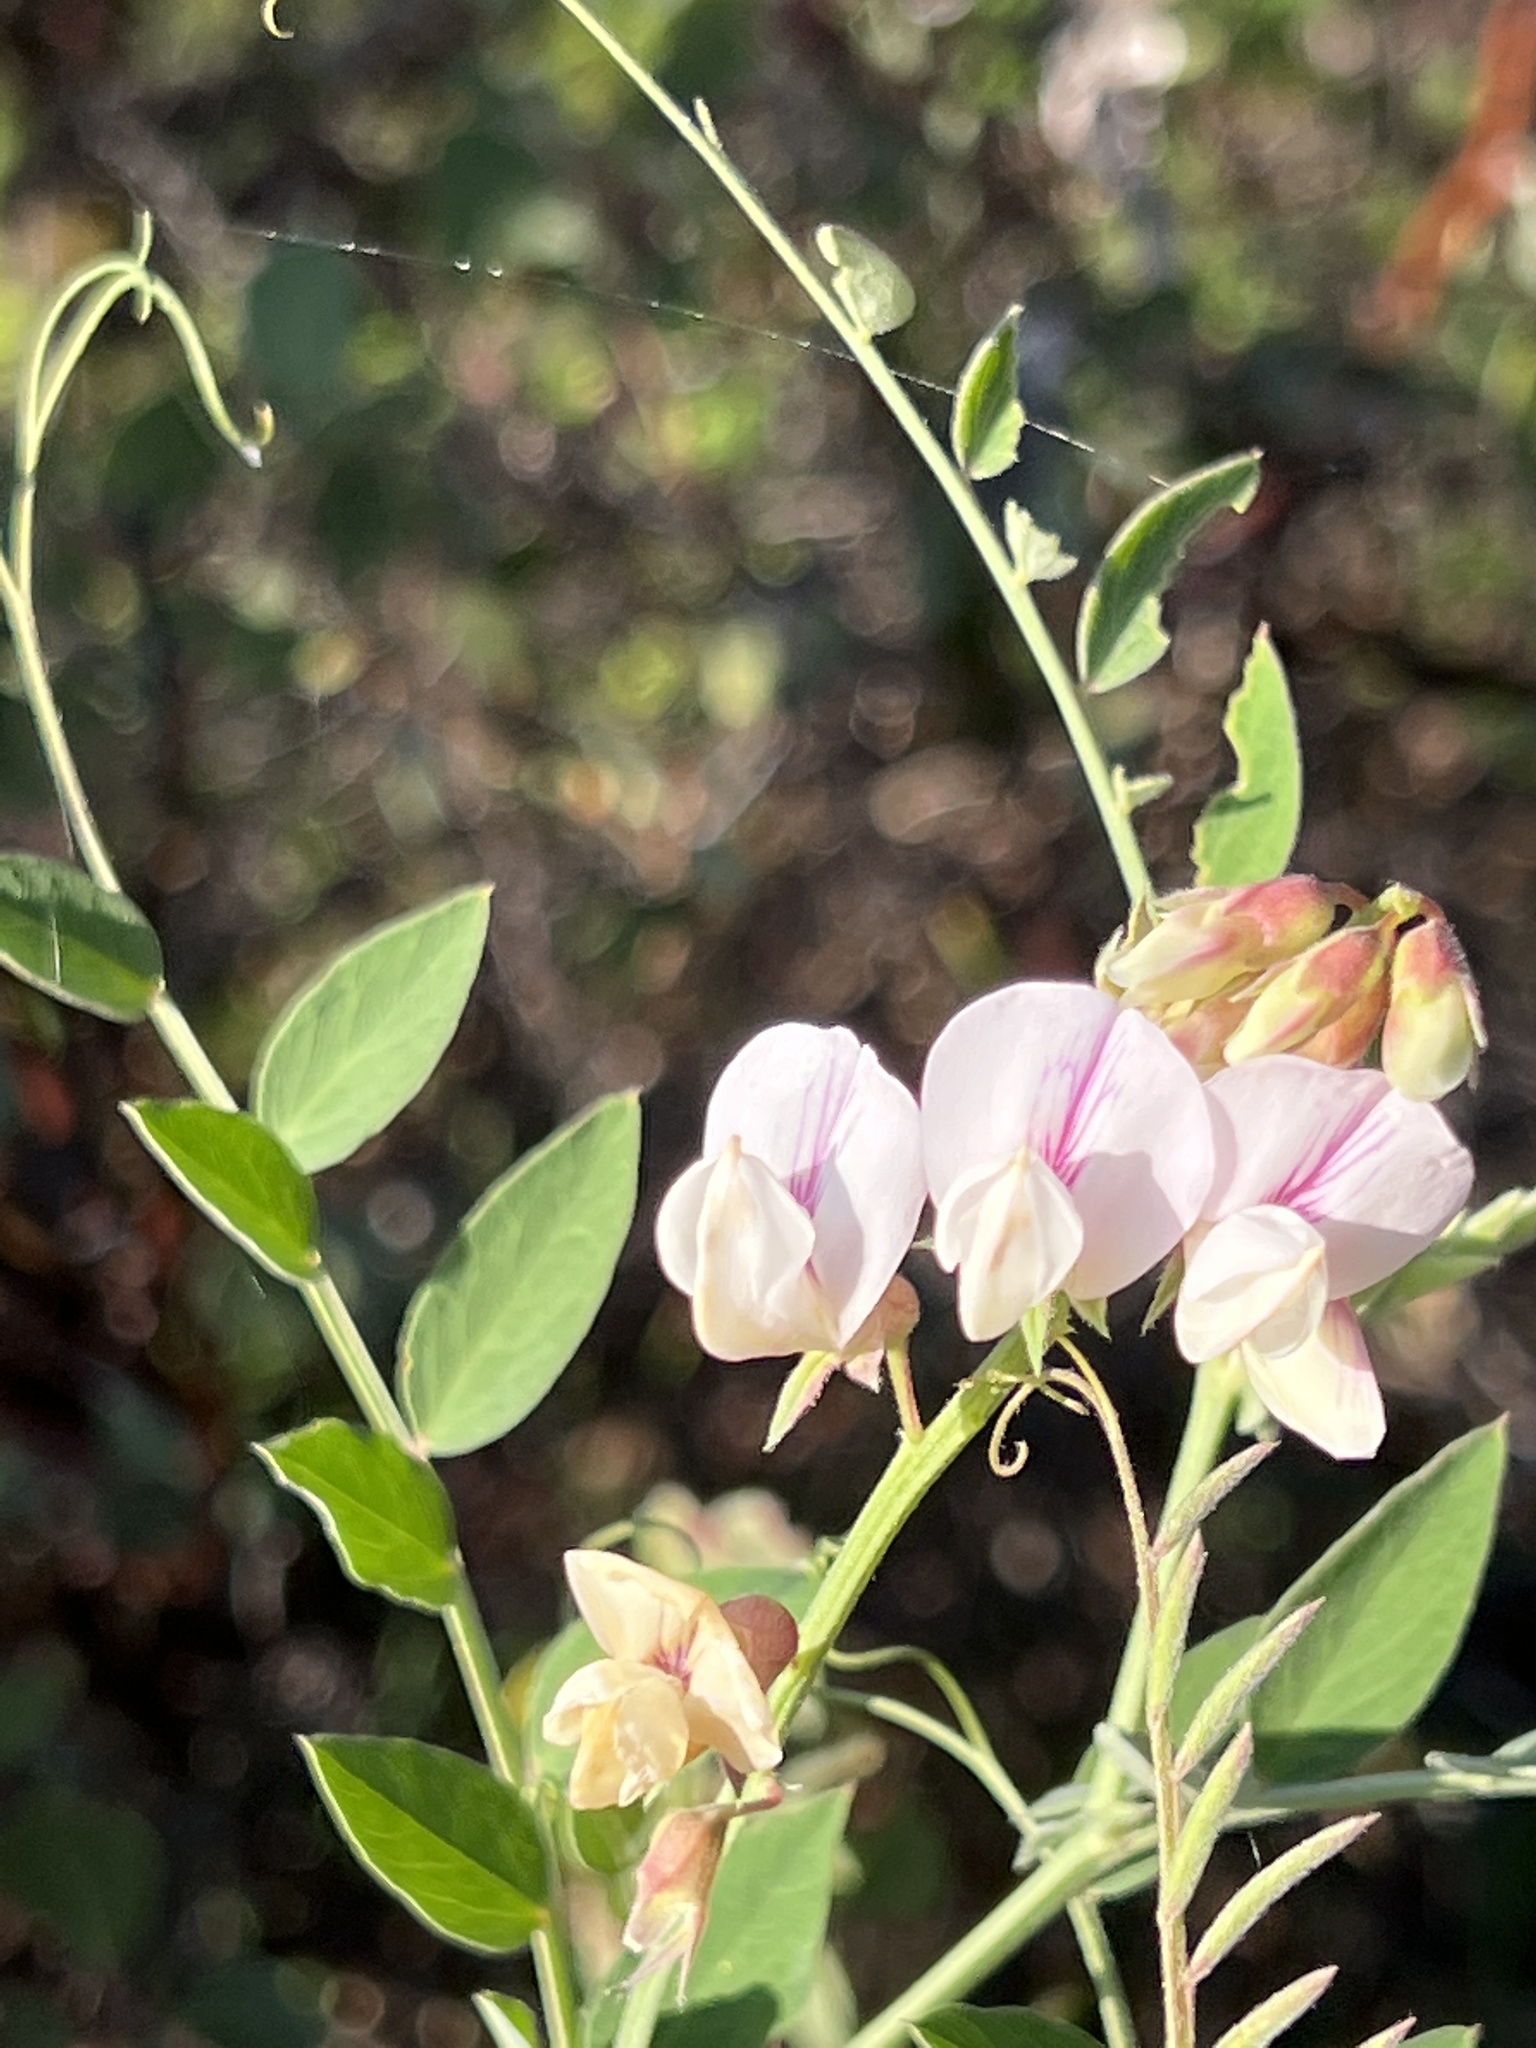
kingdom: Plantae
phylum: Tracheophyta
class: Magnoliopsida
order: Fabales
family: Fabaceae
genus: Lathyrus
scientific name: Lathyrus vestitus
